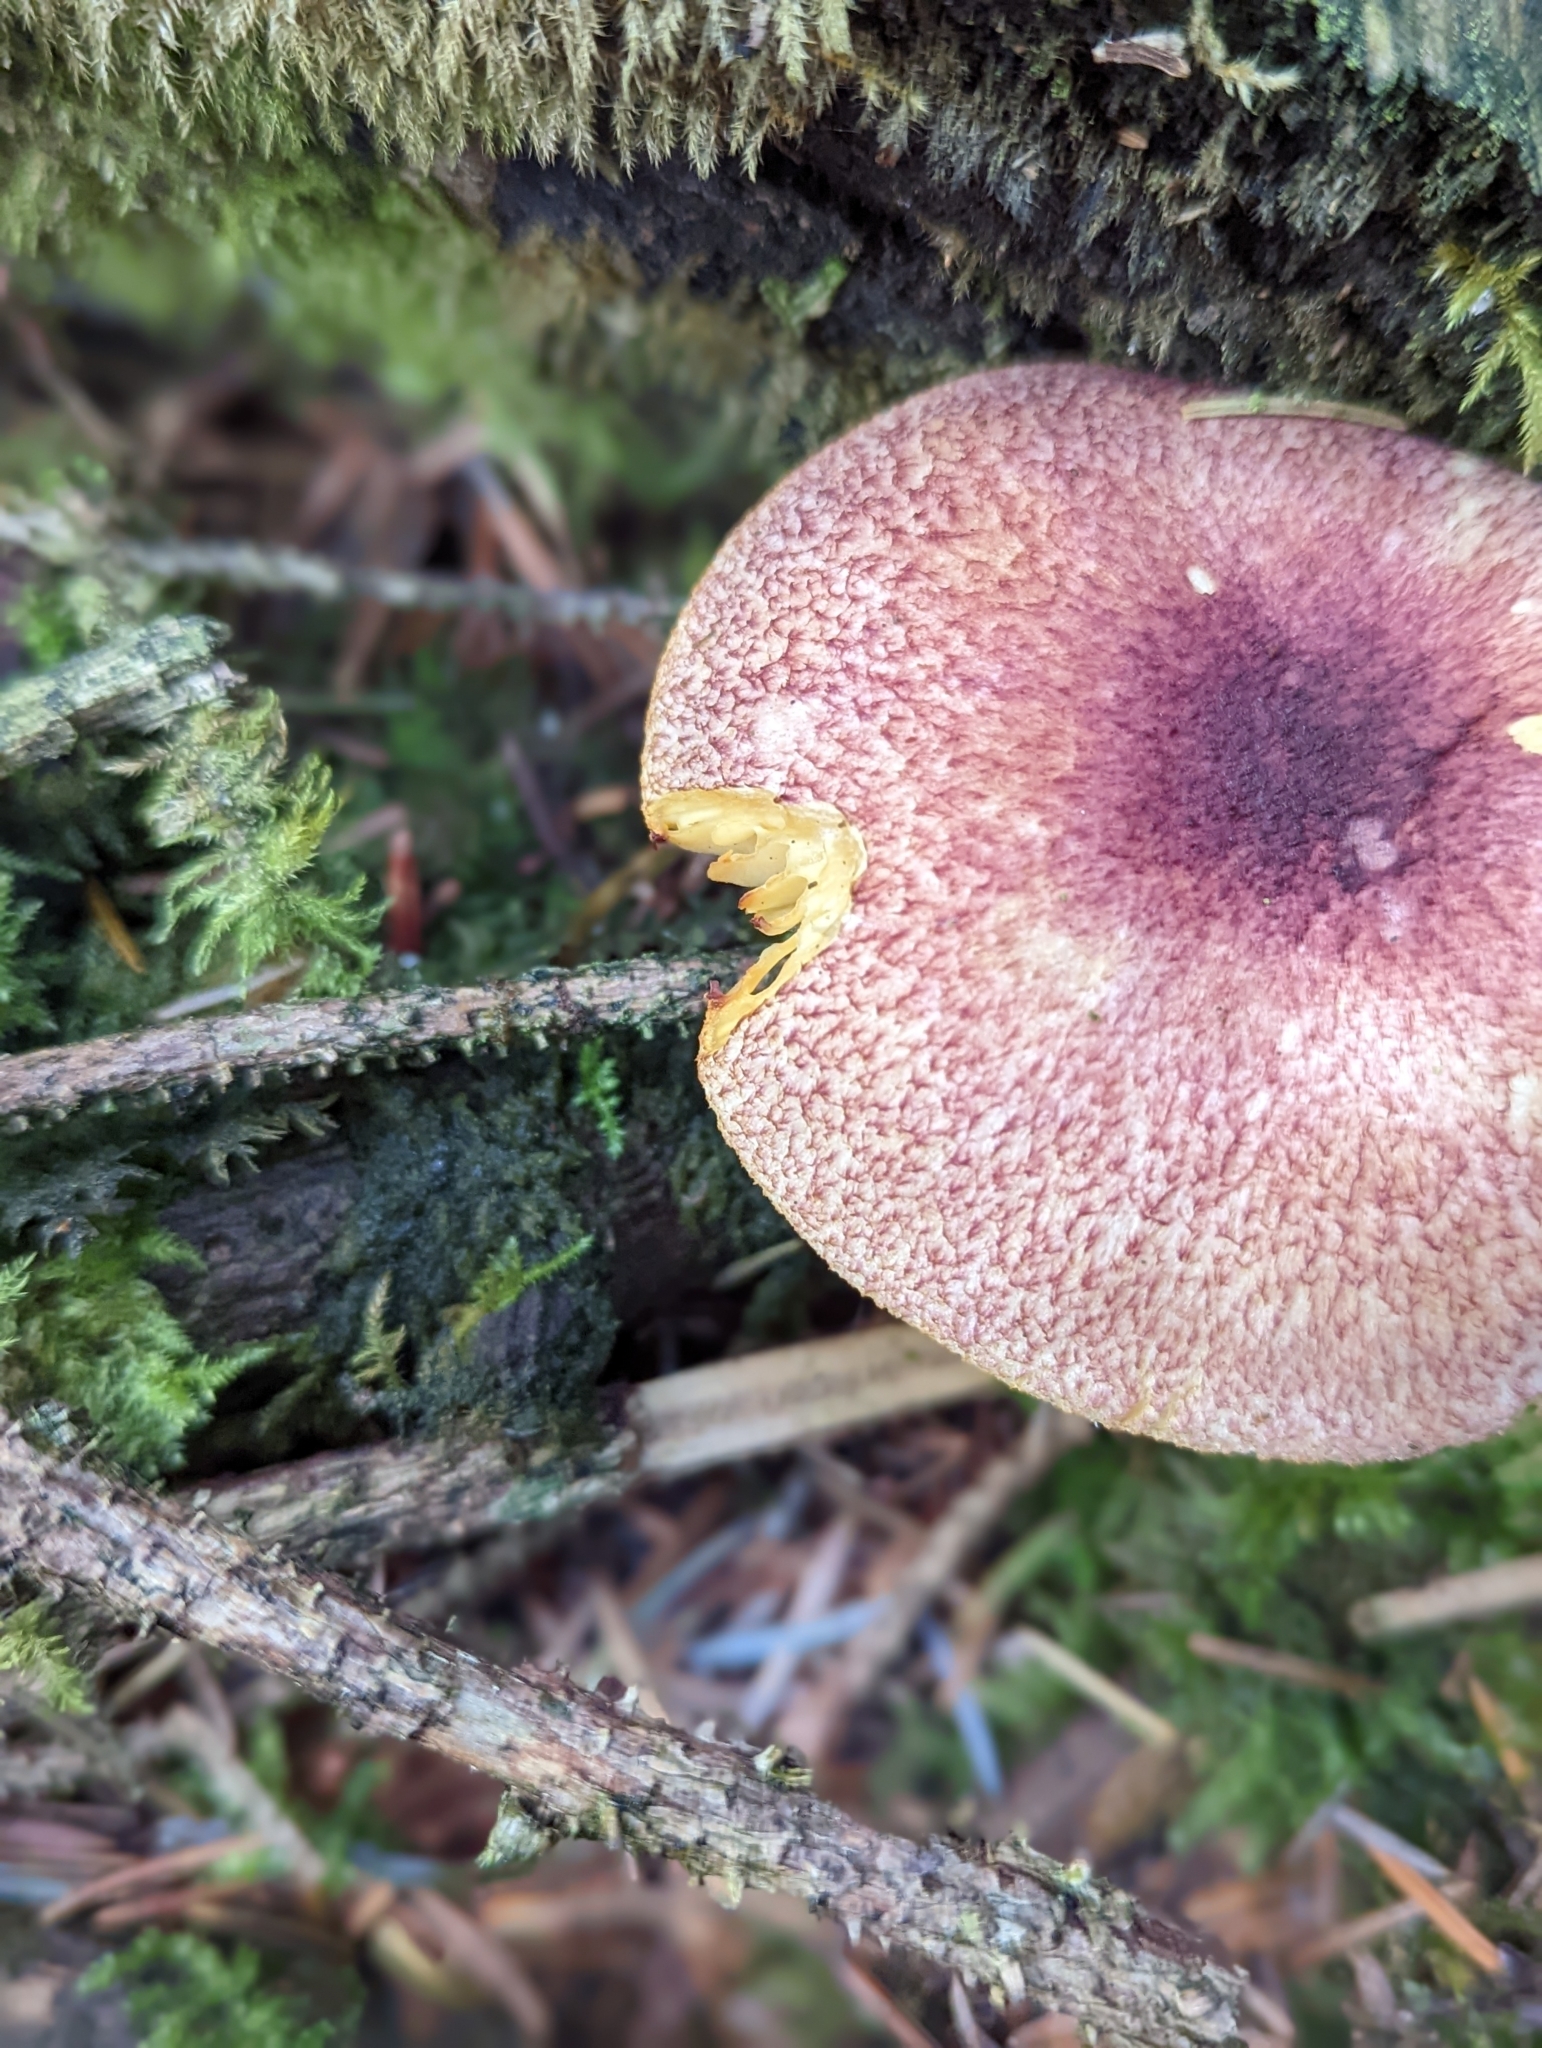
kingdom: Fungi
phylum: Basidiomycota
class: Agaricomycetes
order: Agaricales
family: Tricholomataceae
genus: Tricholomopsis
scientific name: Tricholomopsis rutilans
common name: Plums and custard
